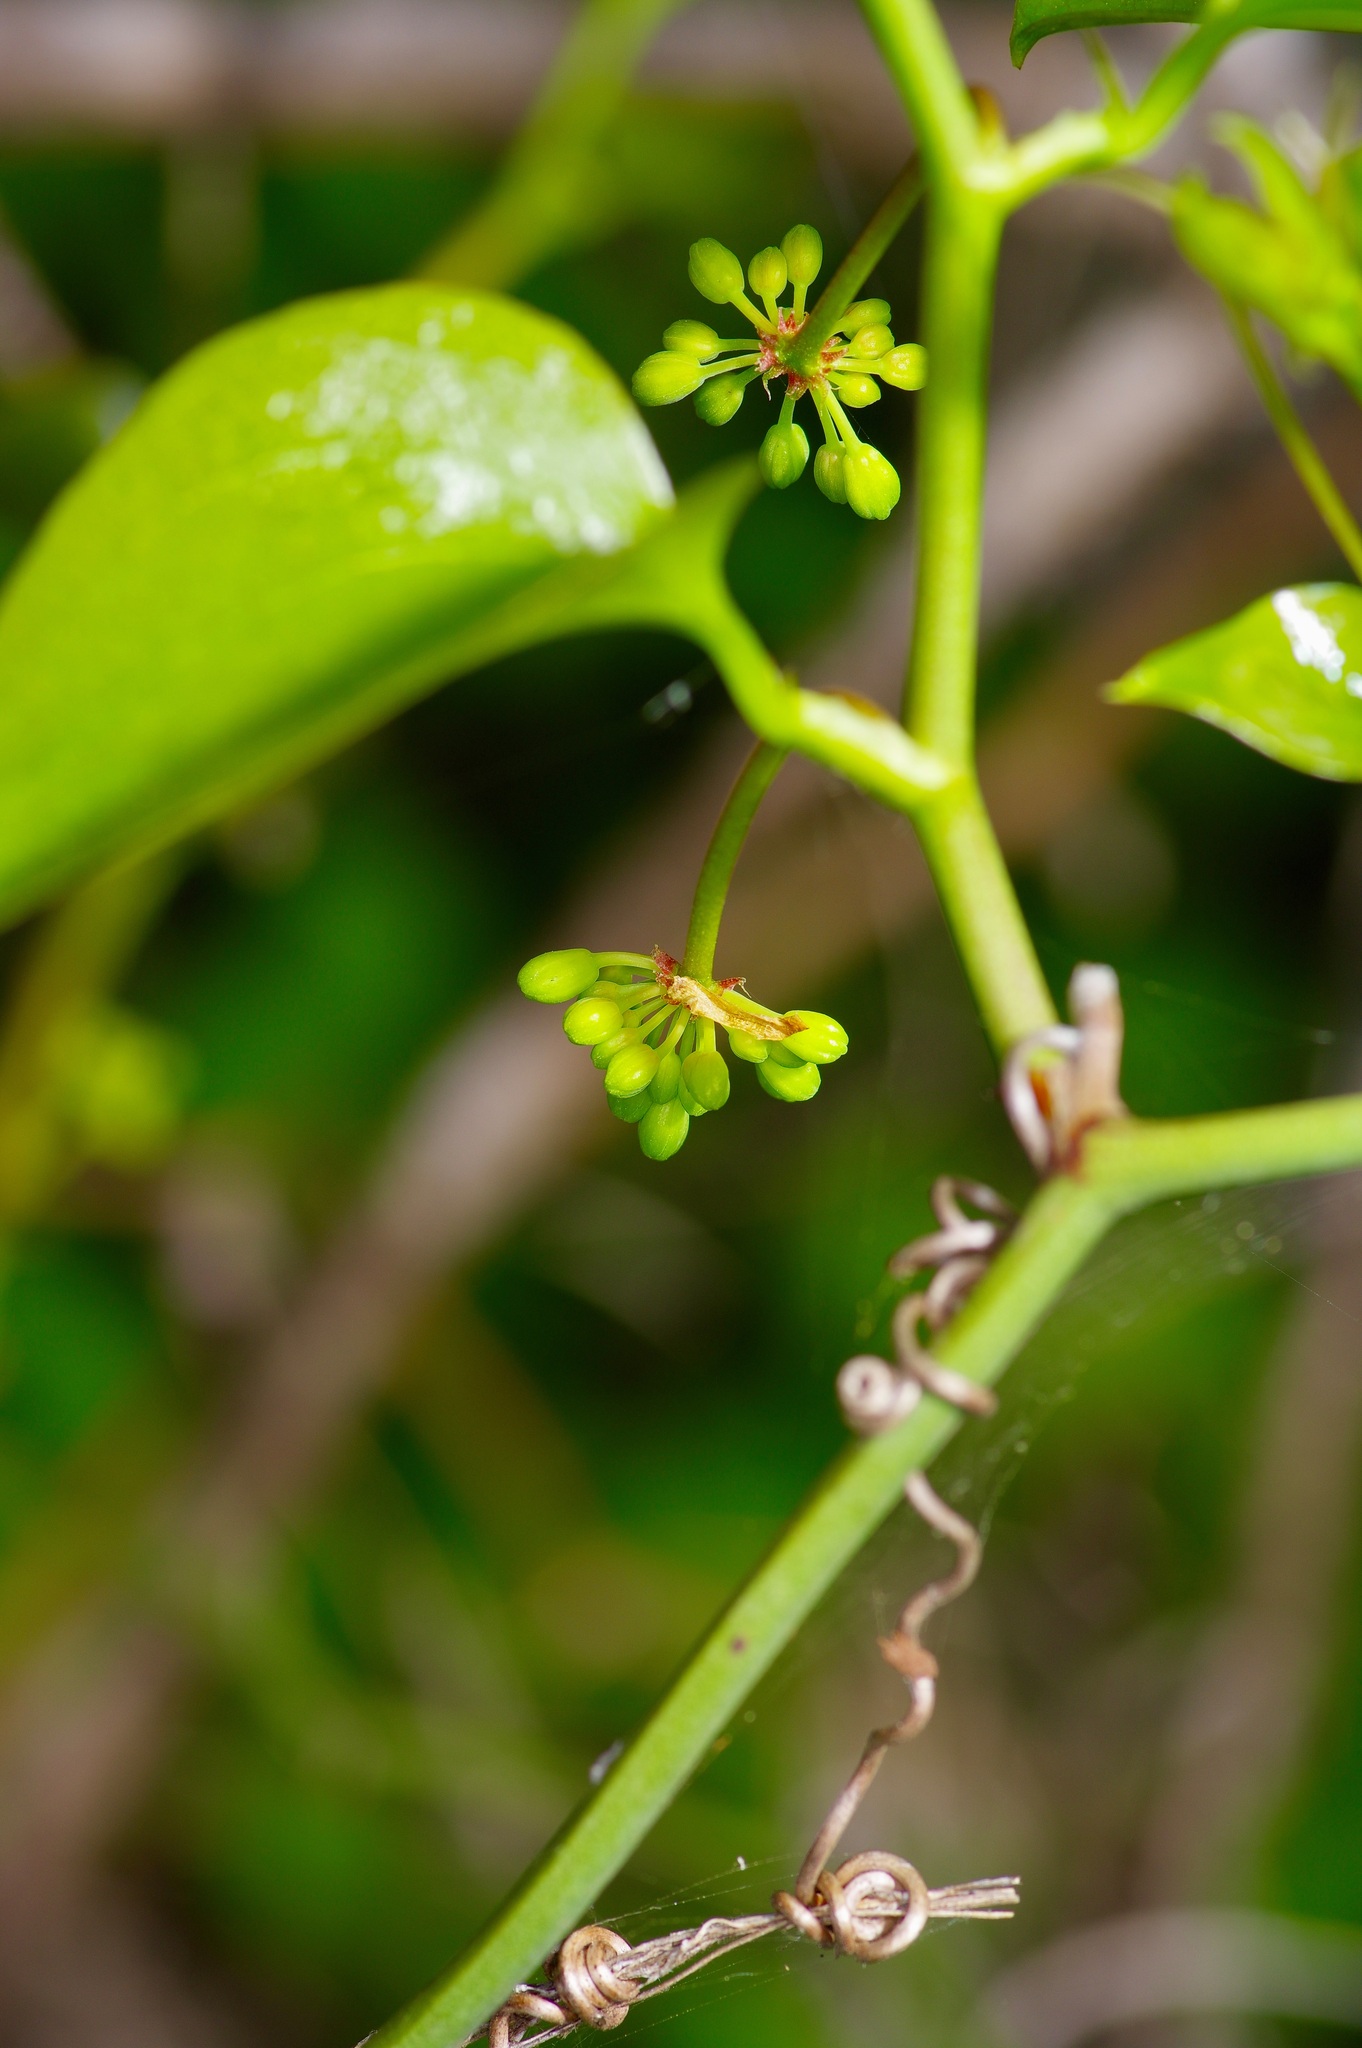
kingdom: Plantae
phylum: Tracheophyta
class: Liliopsida
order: Liliales
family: Smilacaceae
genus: Smilax
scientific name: Smilax bona-nox
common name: Catbrier
